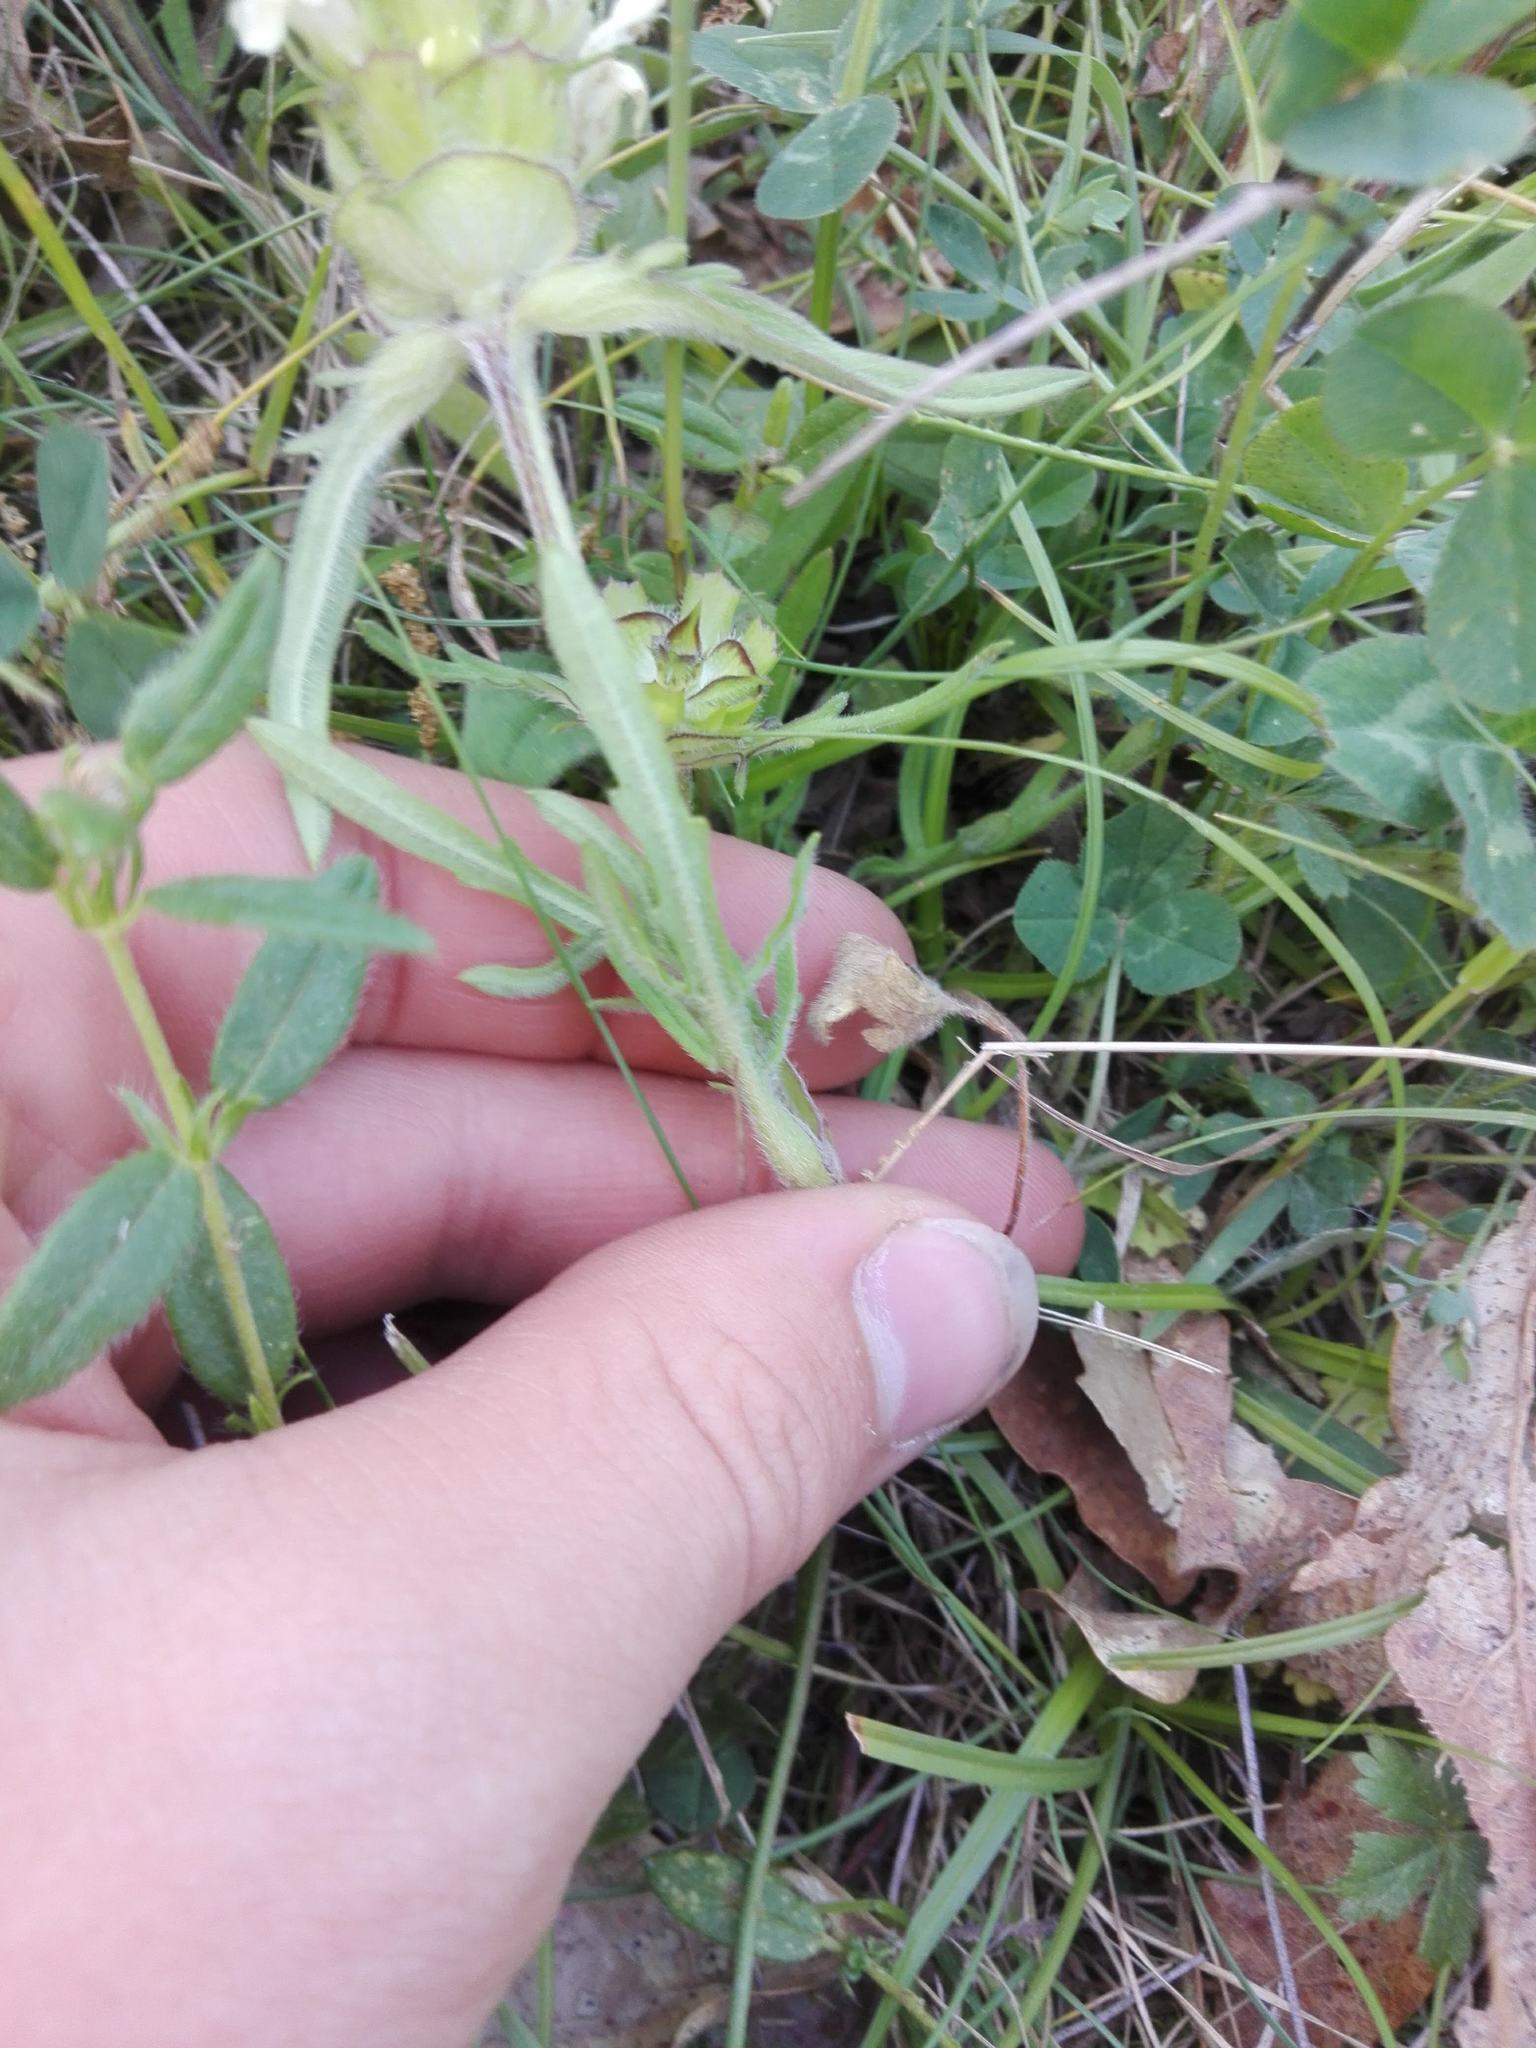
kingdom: Plantae
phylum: Tracheophyta
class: Magnoliopsida
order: Lamiales
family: Lamiaceae
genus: Prunella
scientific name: Prunella laciniata
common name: Cut-leaved selfheal
